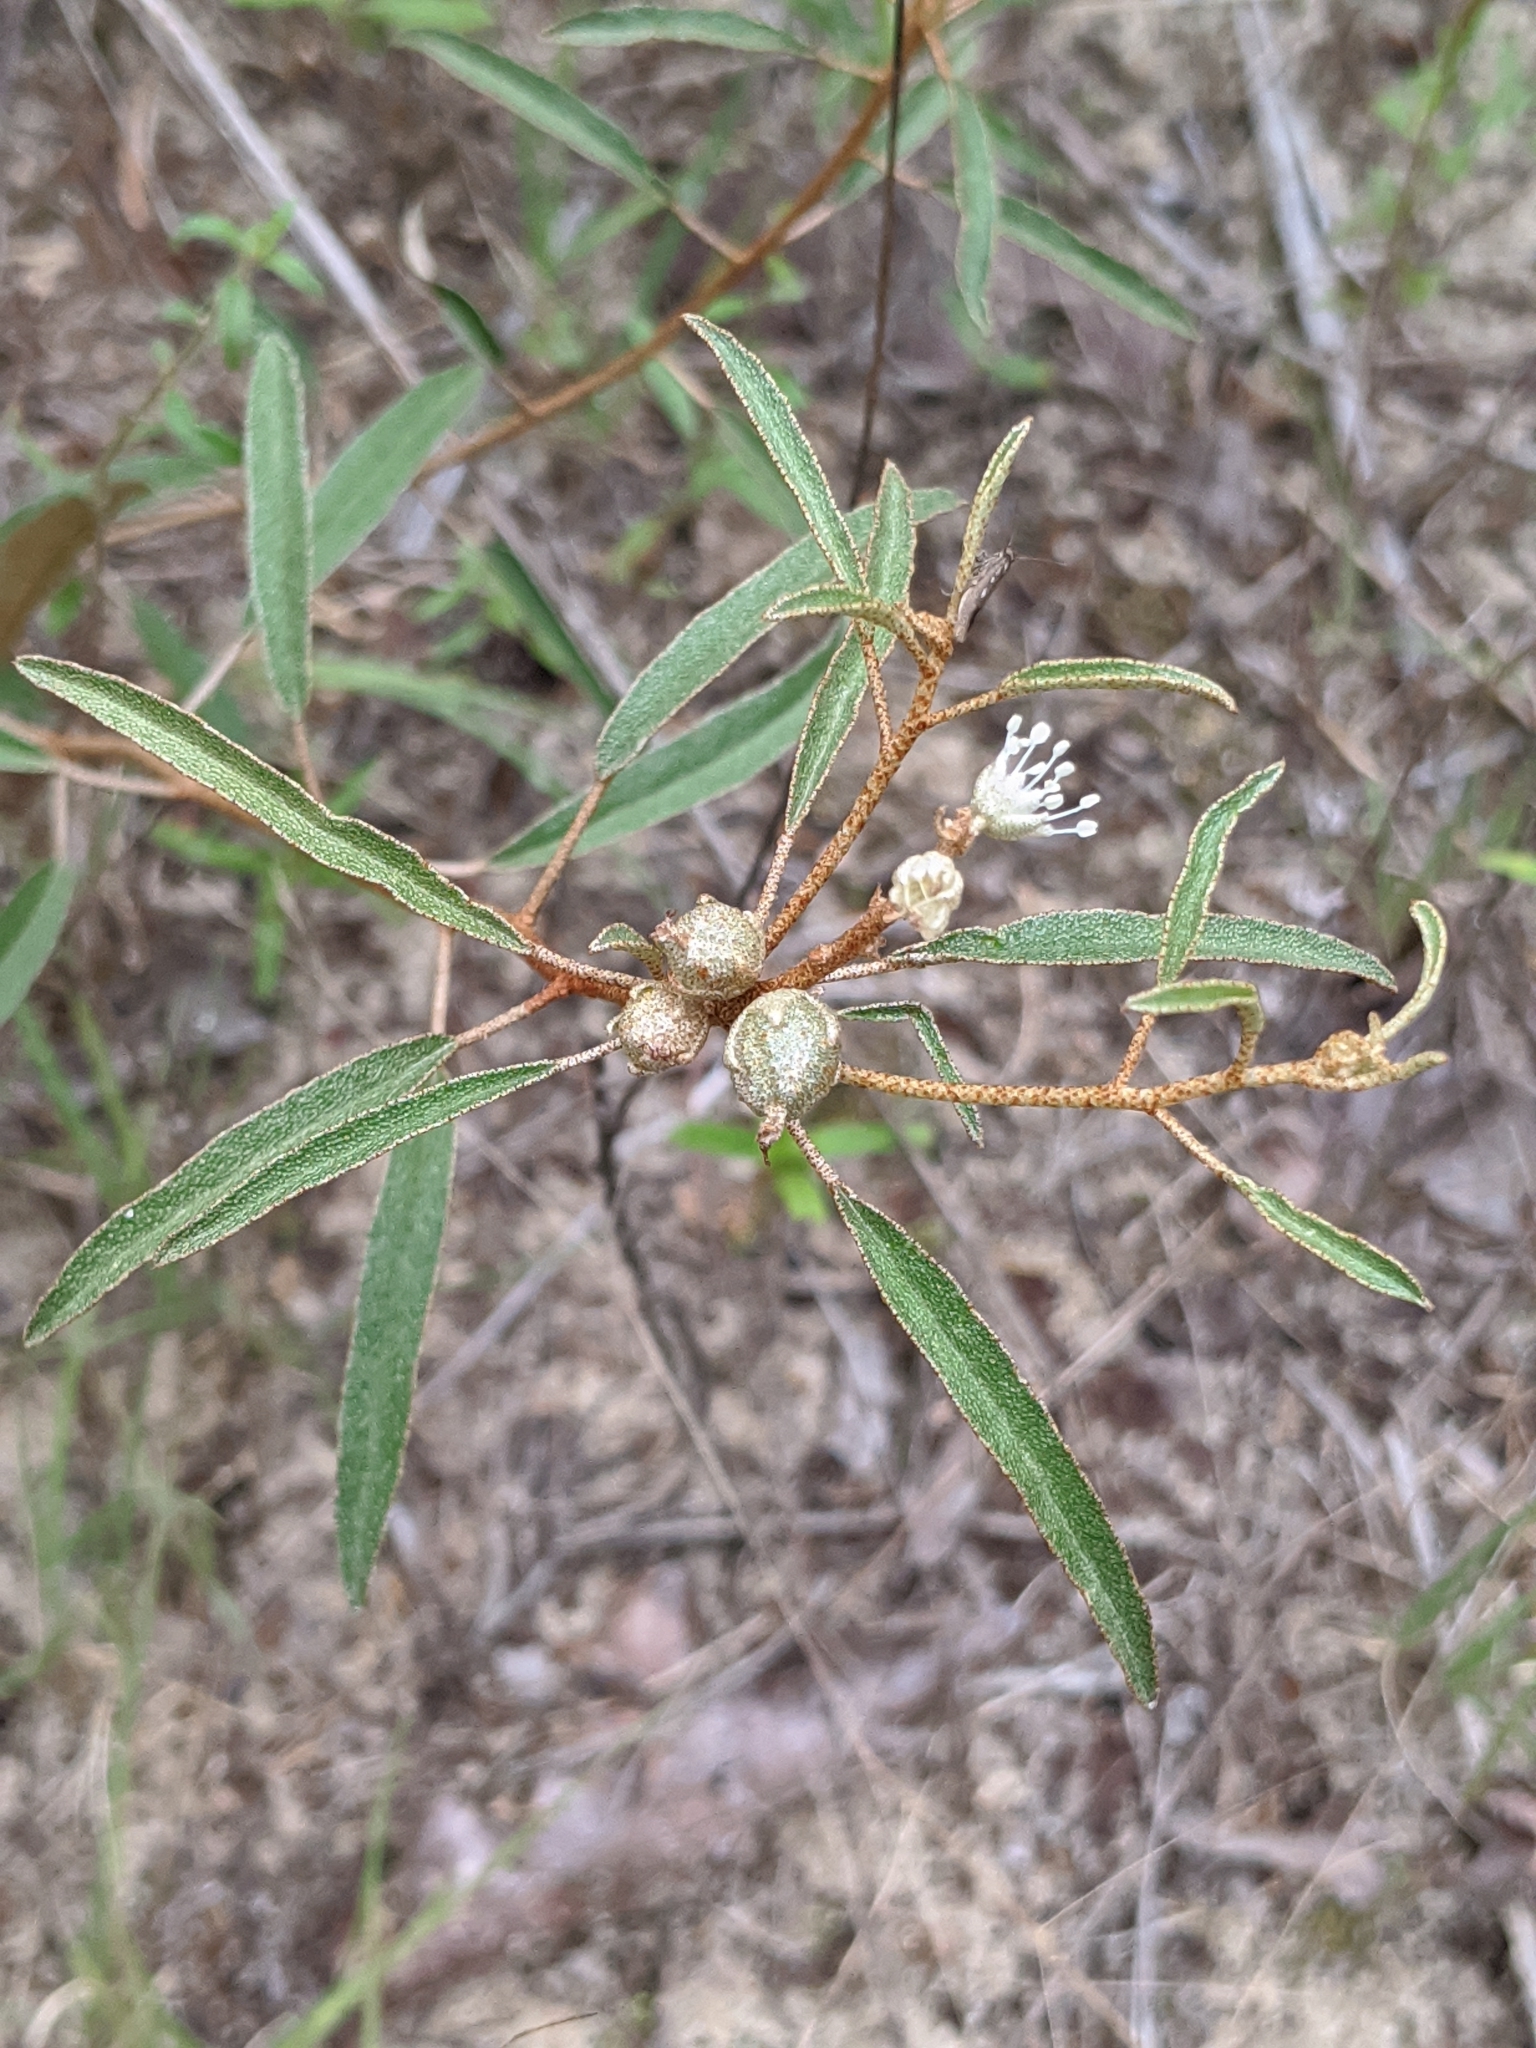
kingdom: Plantae
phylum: Tracheophyta
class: Magnoliopsida
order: Malpighiales
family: Euphorbiaceae
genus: Croton
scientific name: Croton argyranthemus
